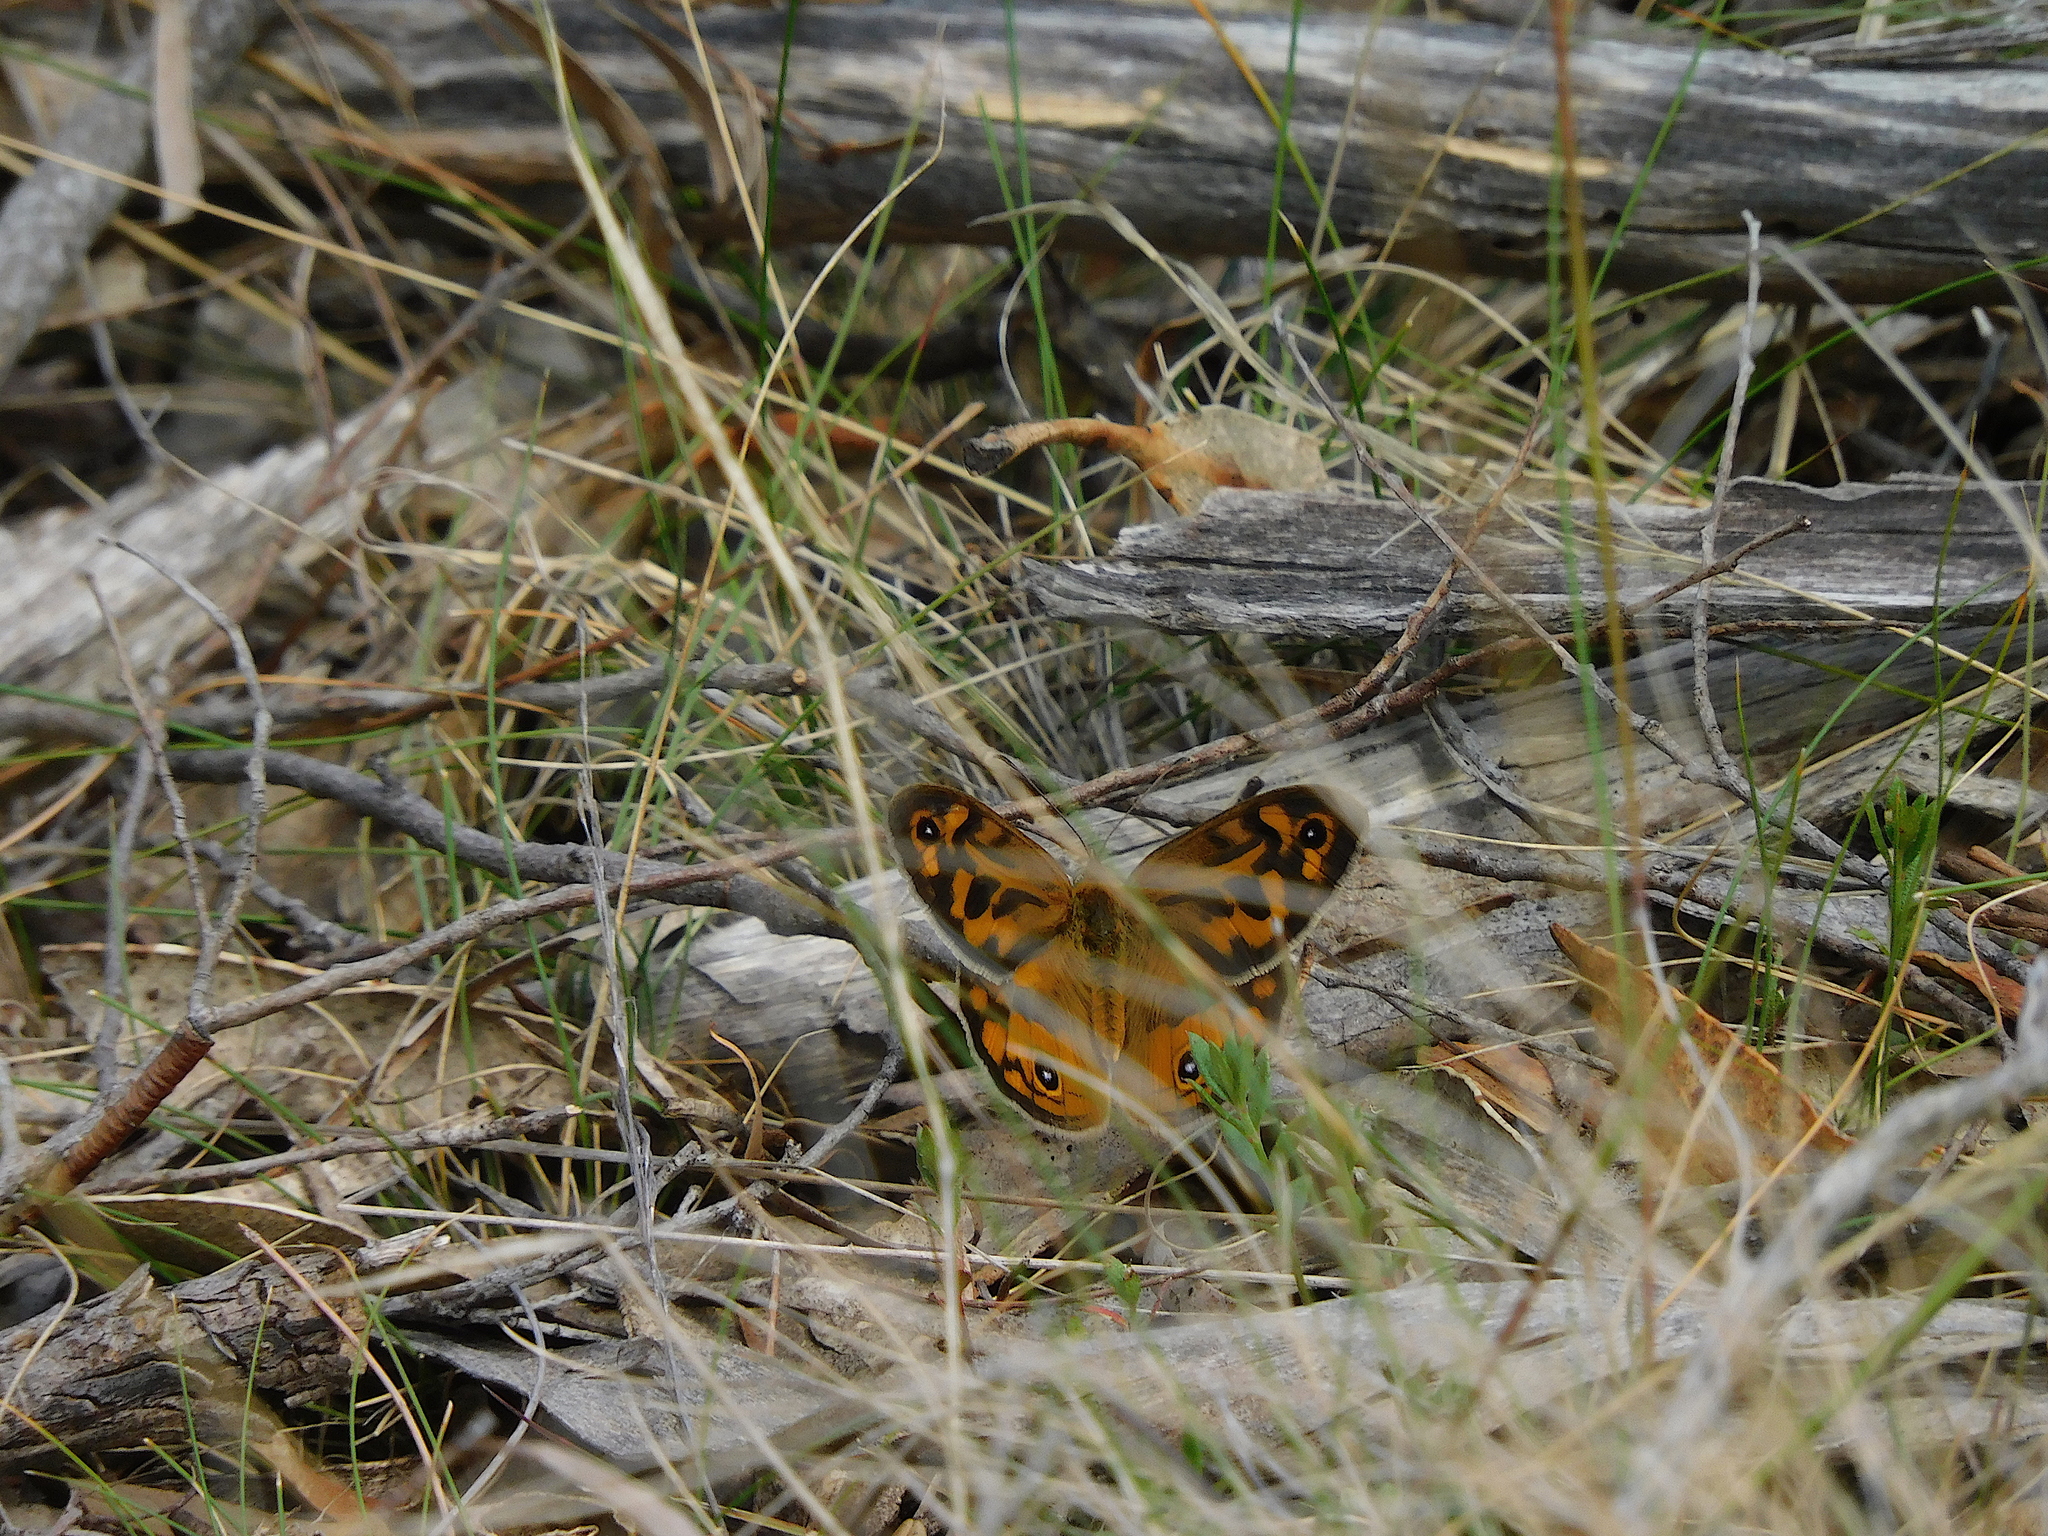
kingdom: Animalia
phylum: Arthropoda
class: Insecta
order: Lepidoptera
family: Nymphalidae
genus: Heteronympha
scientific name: Heteronympha merope
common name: Common brown
